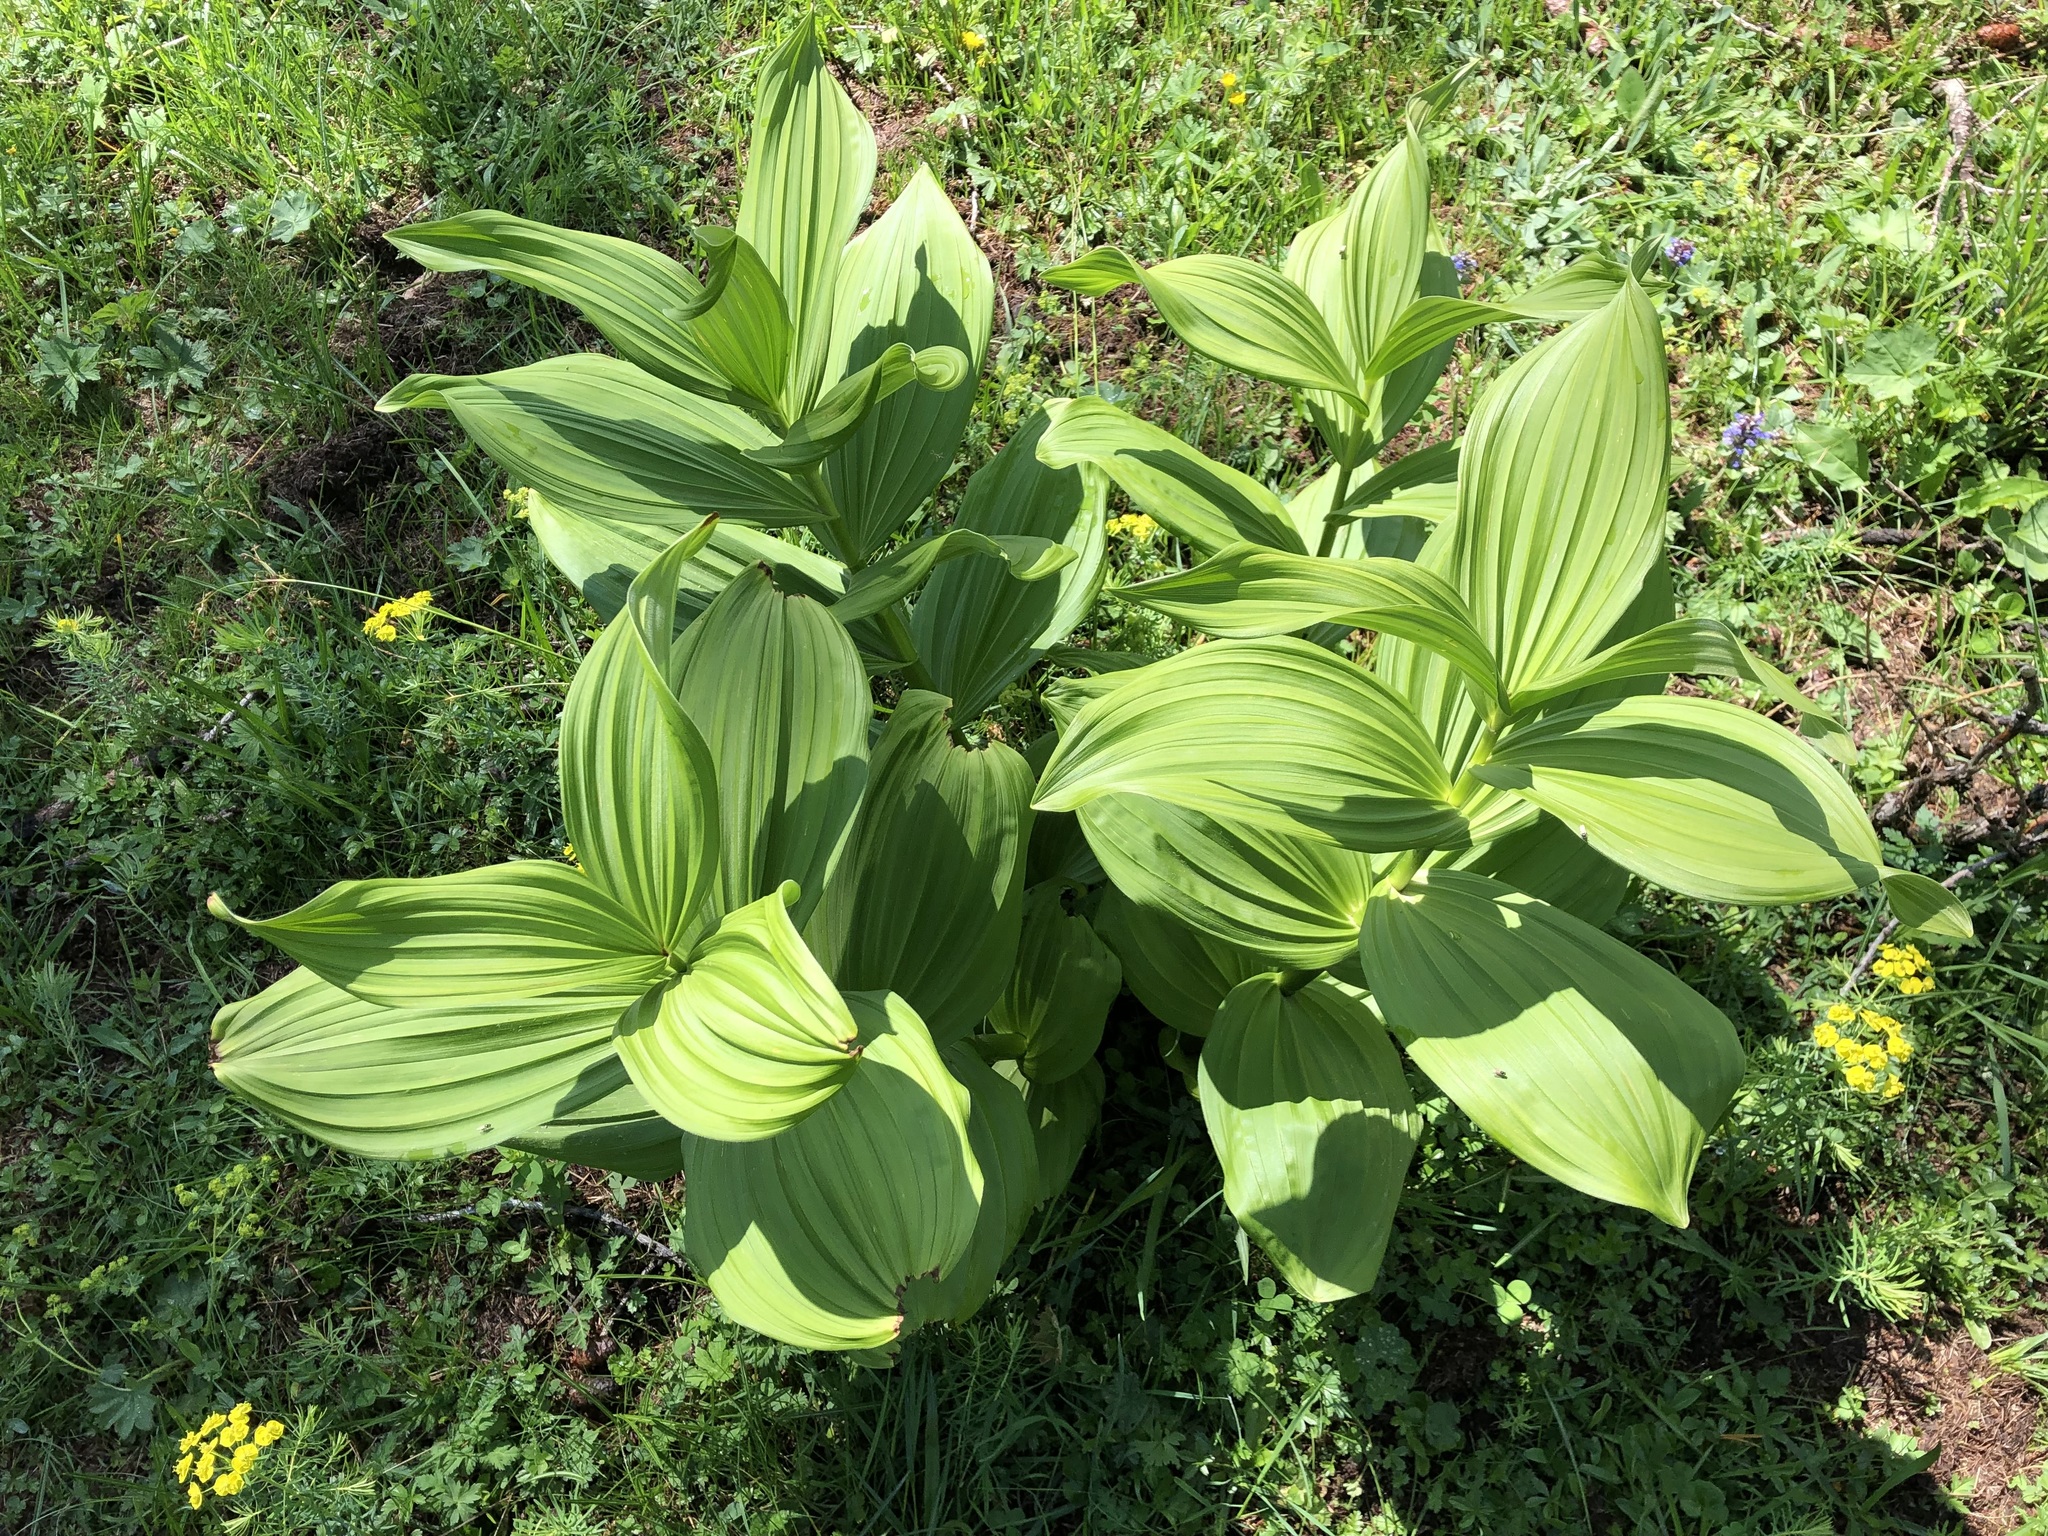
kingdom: Plantae
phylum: Tracheophyta
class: Liliopsida
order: Liliales
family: Melanthiaceae
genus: Veratrum
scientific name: Veratrum album
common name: White veratrum
